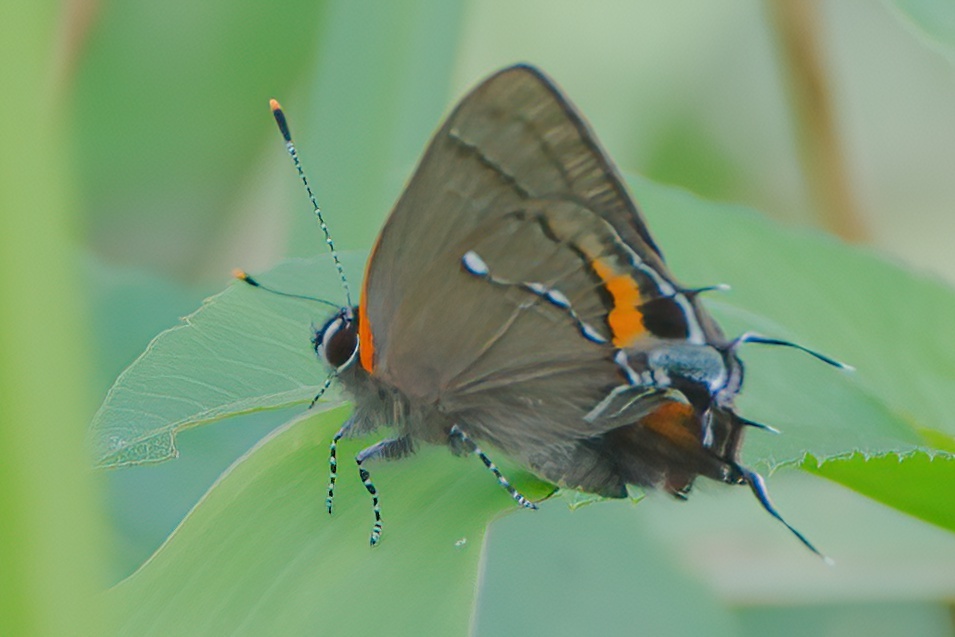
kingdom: Animalia
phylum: Arthropoda
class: Insecta
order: Lepidoptera
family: Lycaenidae
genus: Thecla
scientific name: Thecla angelia
